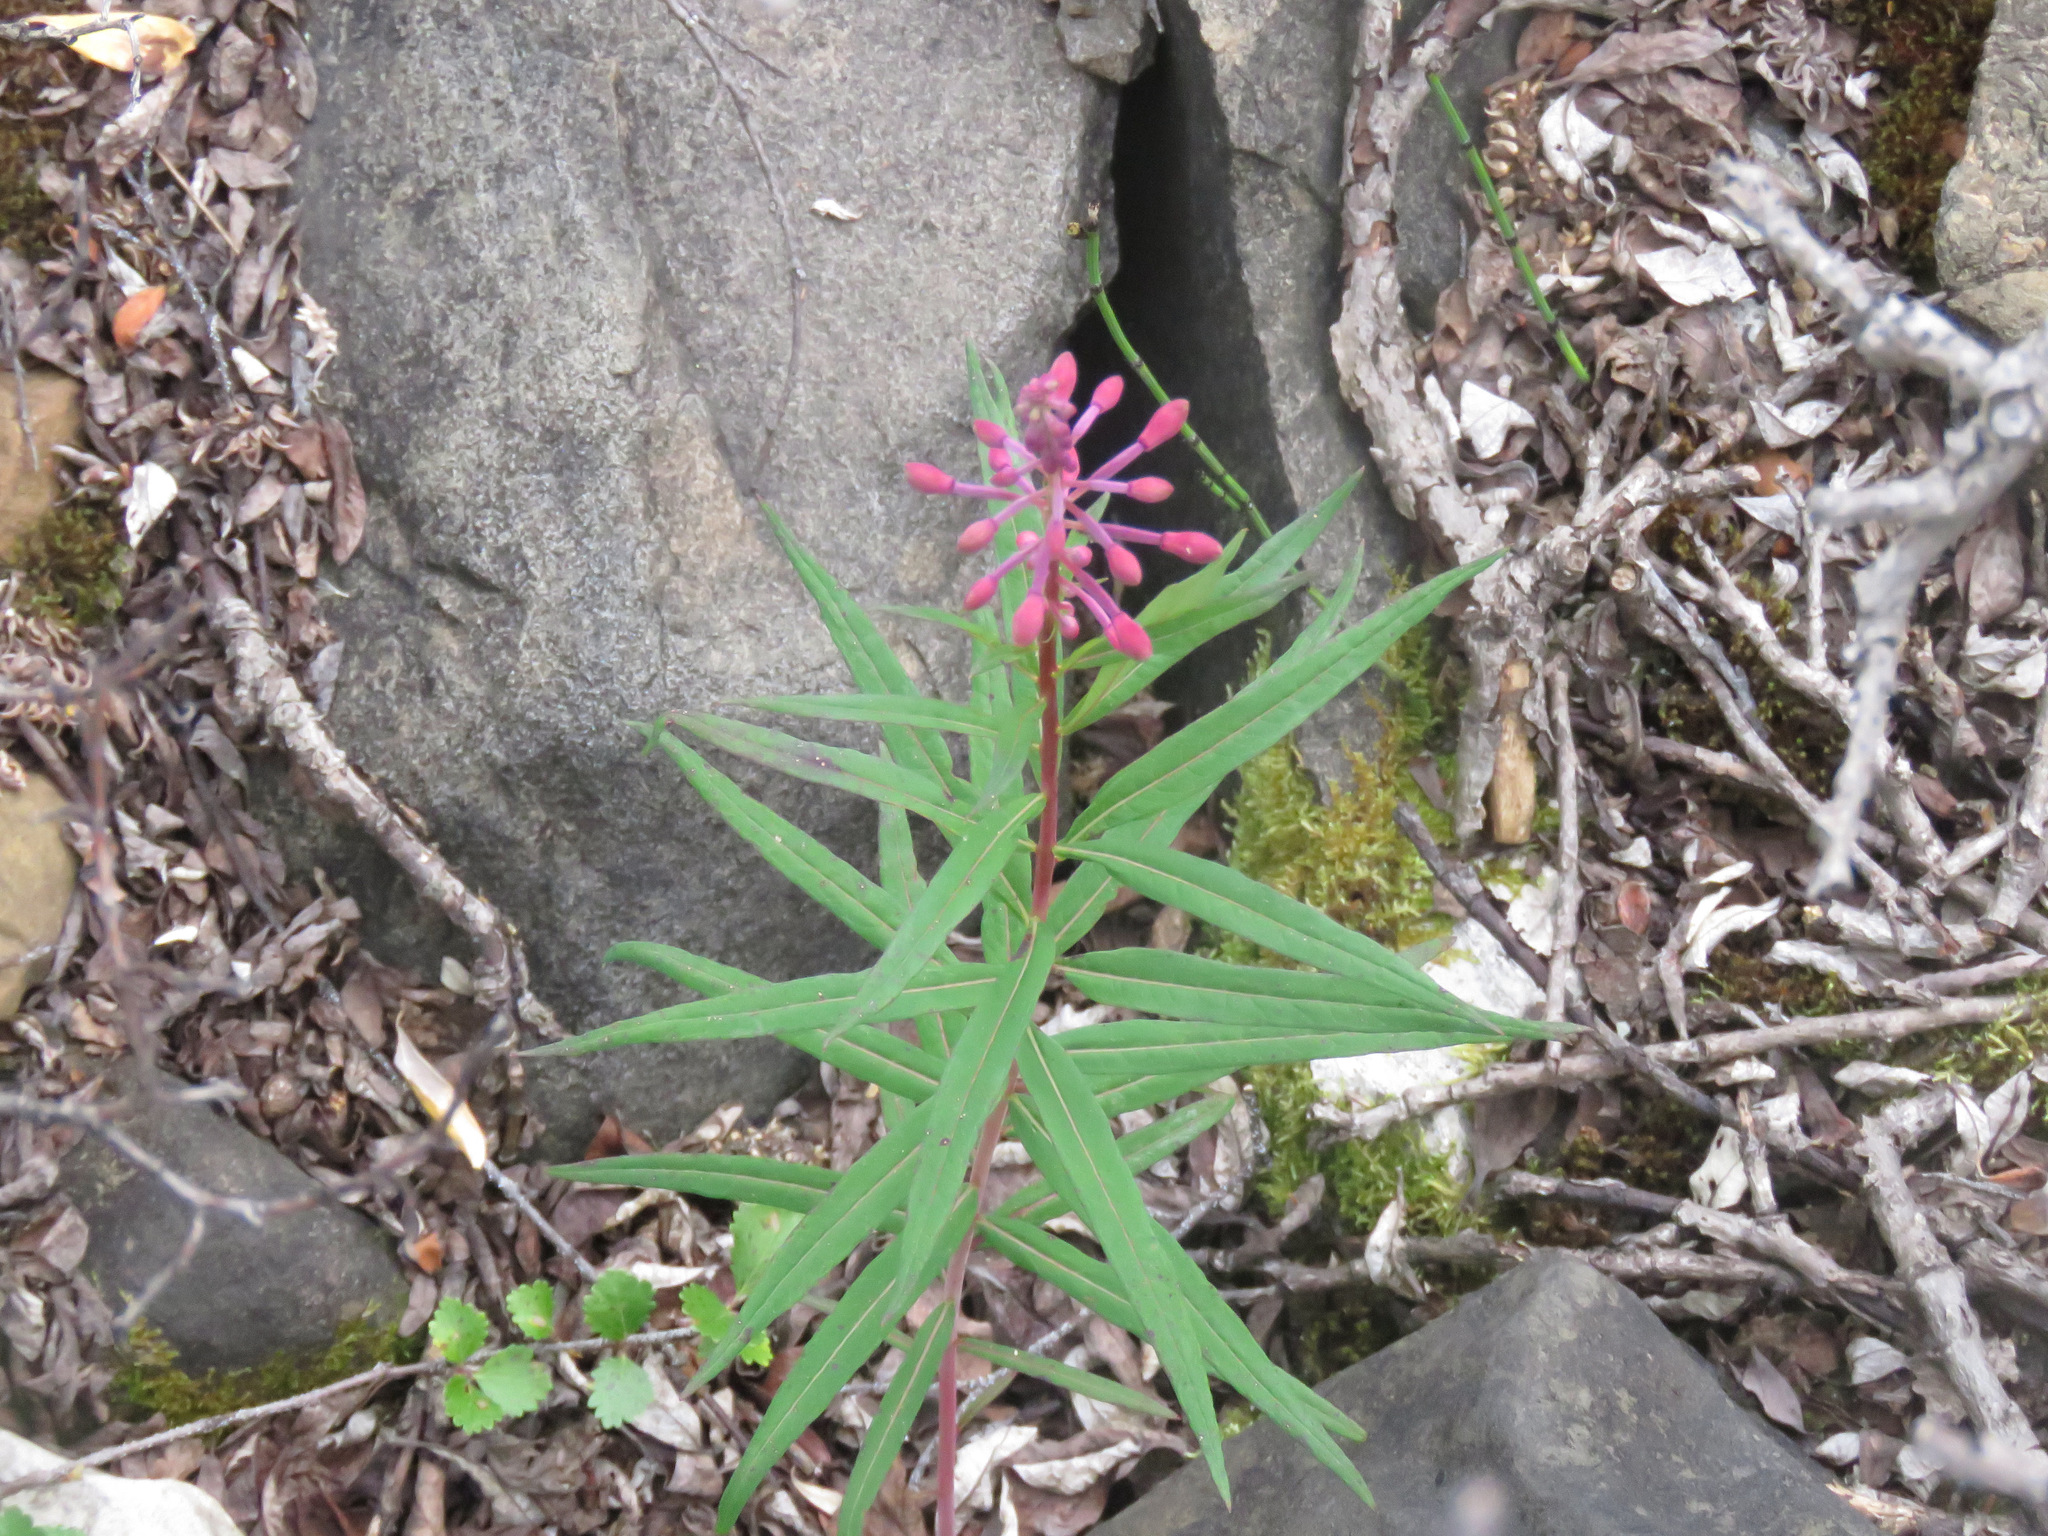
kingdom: Plantae
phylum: Tracheophyta
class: Magnoliopsida
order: Myrtales
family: Onagraceae
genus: Chamaenerion
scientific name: Chamaenerion angustifolium
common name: Fireweed
